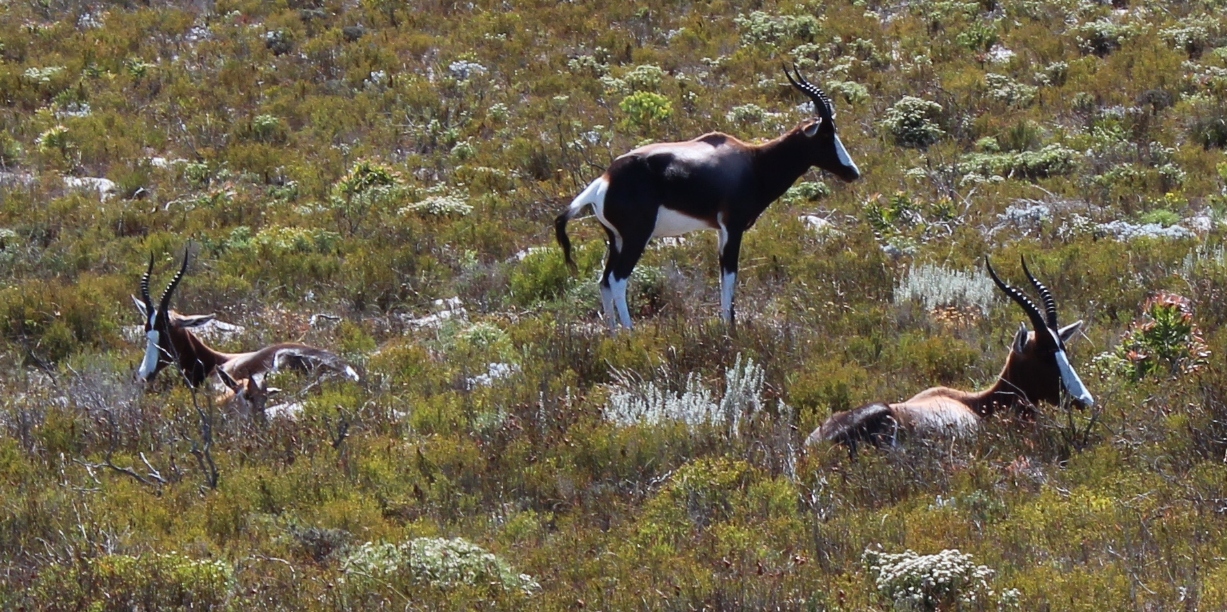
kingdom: Animalia
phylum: Chordata
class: Mammalia
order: Artiodactyla
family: Bovidae
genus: Damaliscus
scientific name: Damaliscus pygargus
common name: Bontebok
